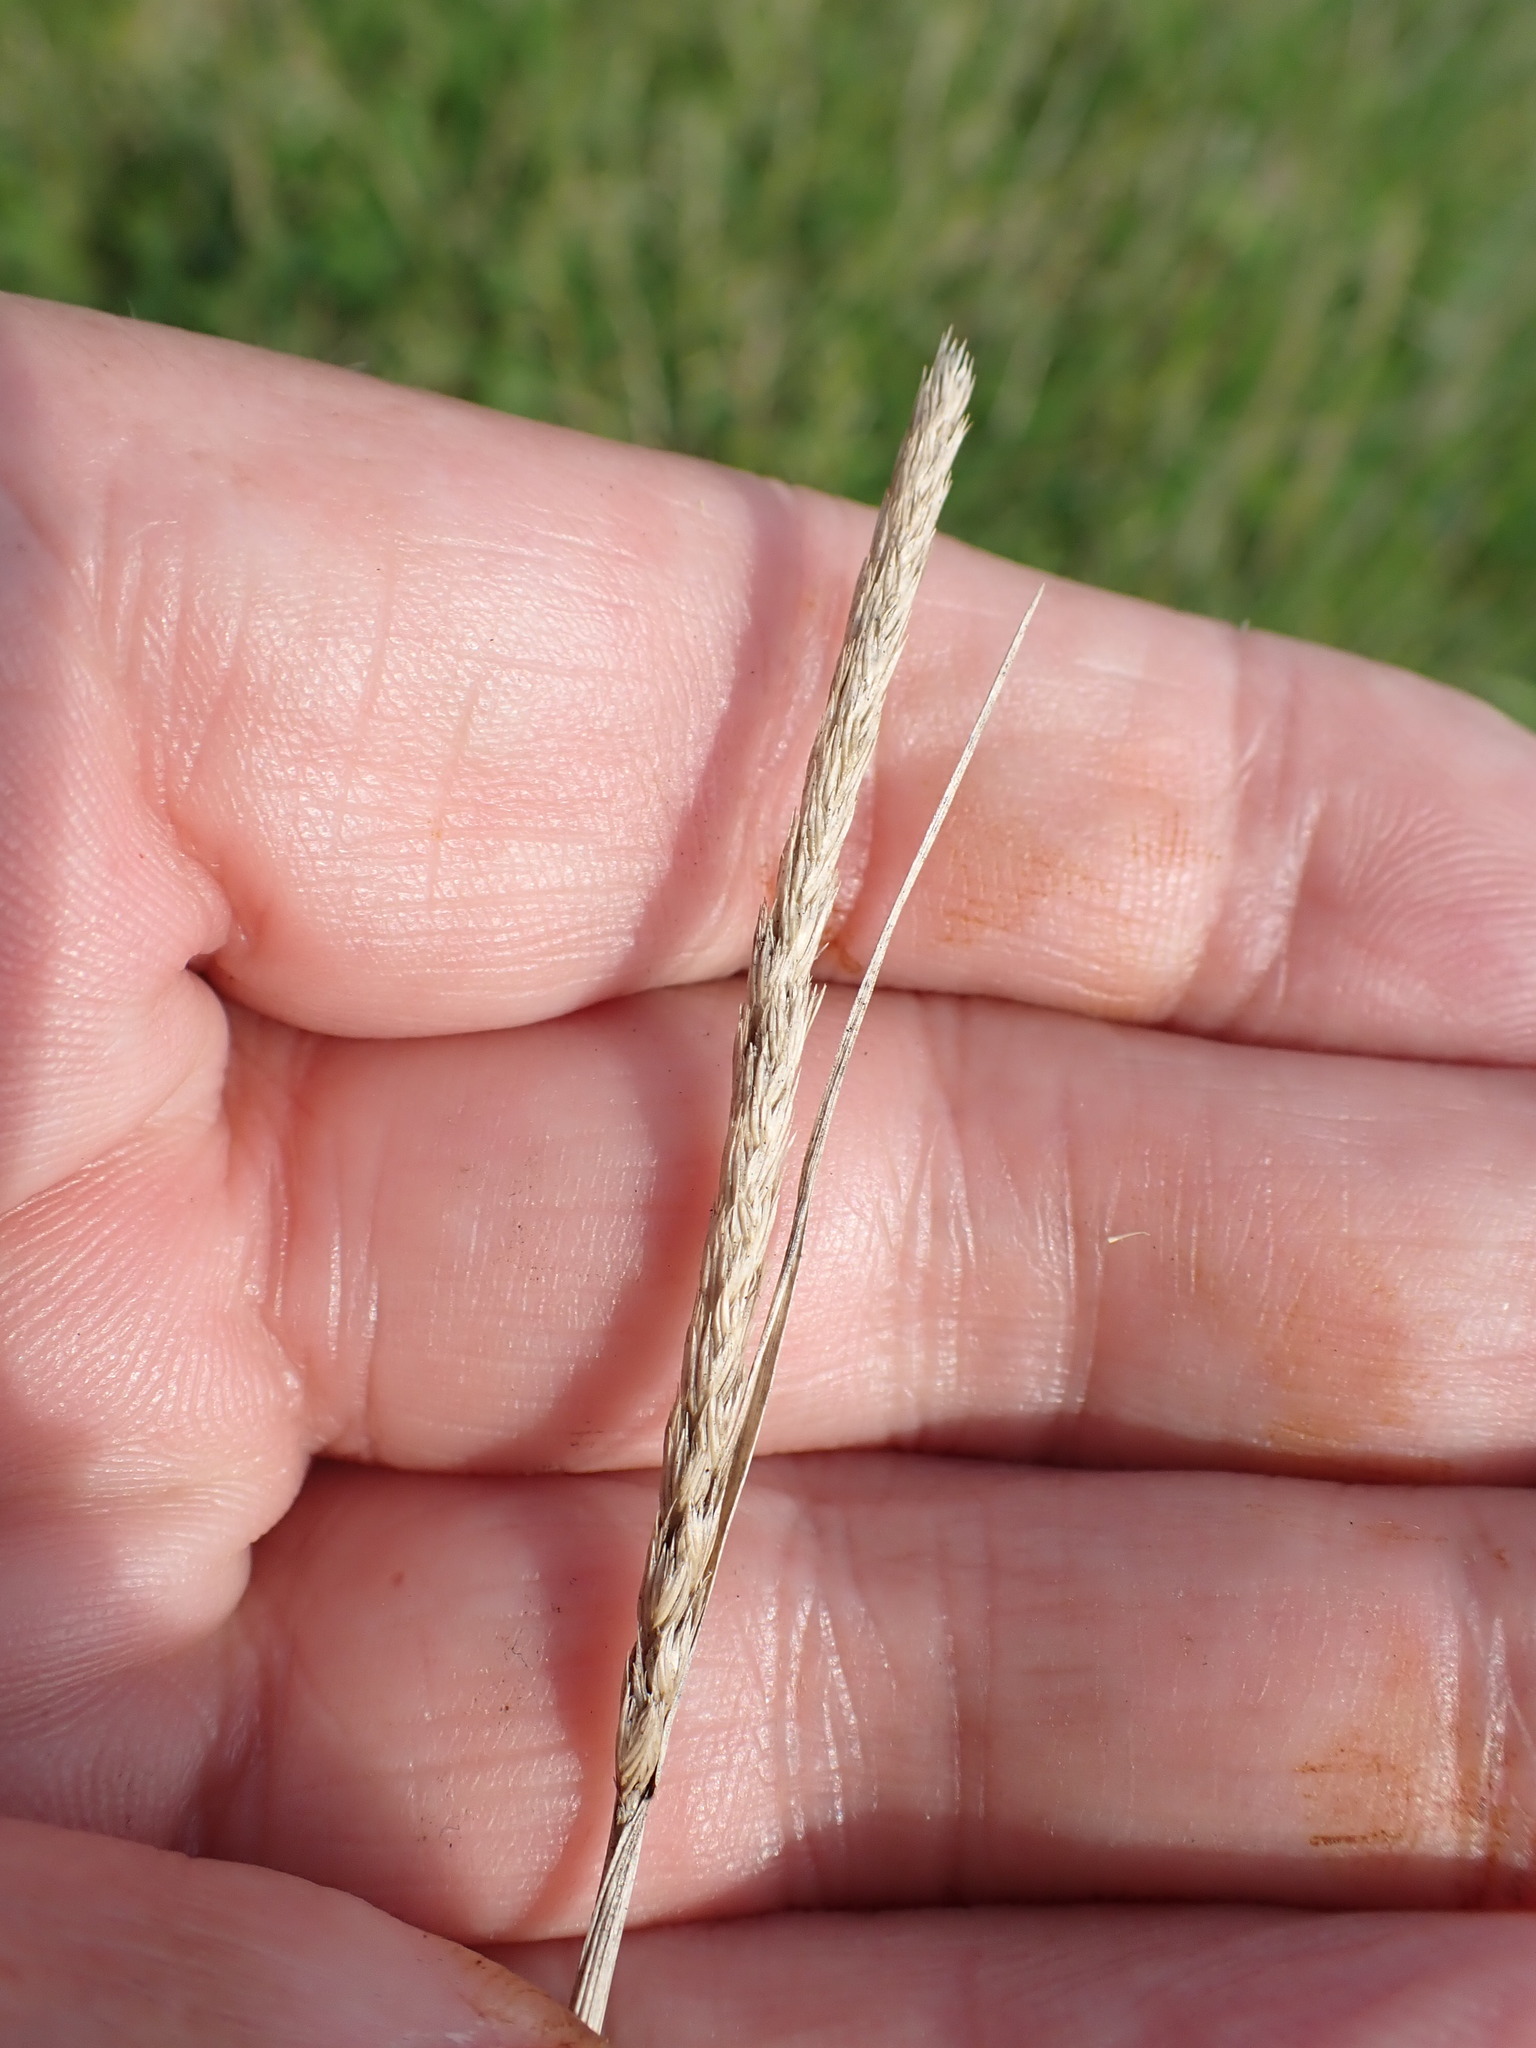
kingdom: Plantae
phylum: Tracheophyta
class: Liliopsida
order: Poales
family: Poaceae
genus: Cynosurus
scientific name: Cynosurus cristatus
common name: Crested dog's-tail
